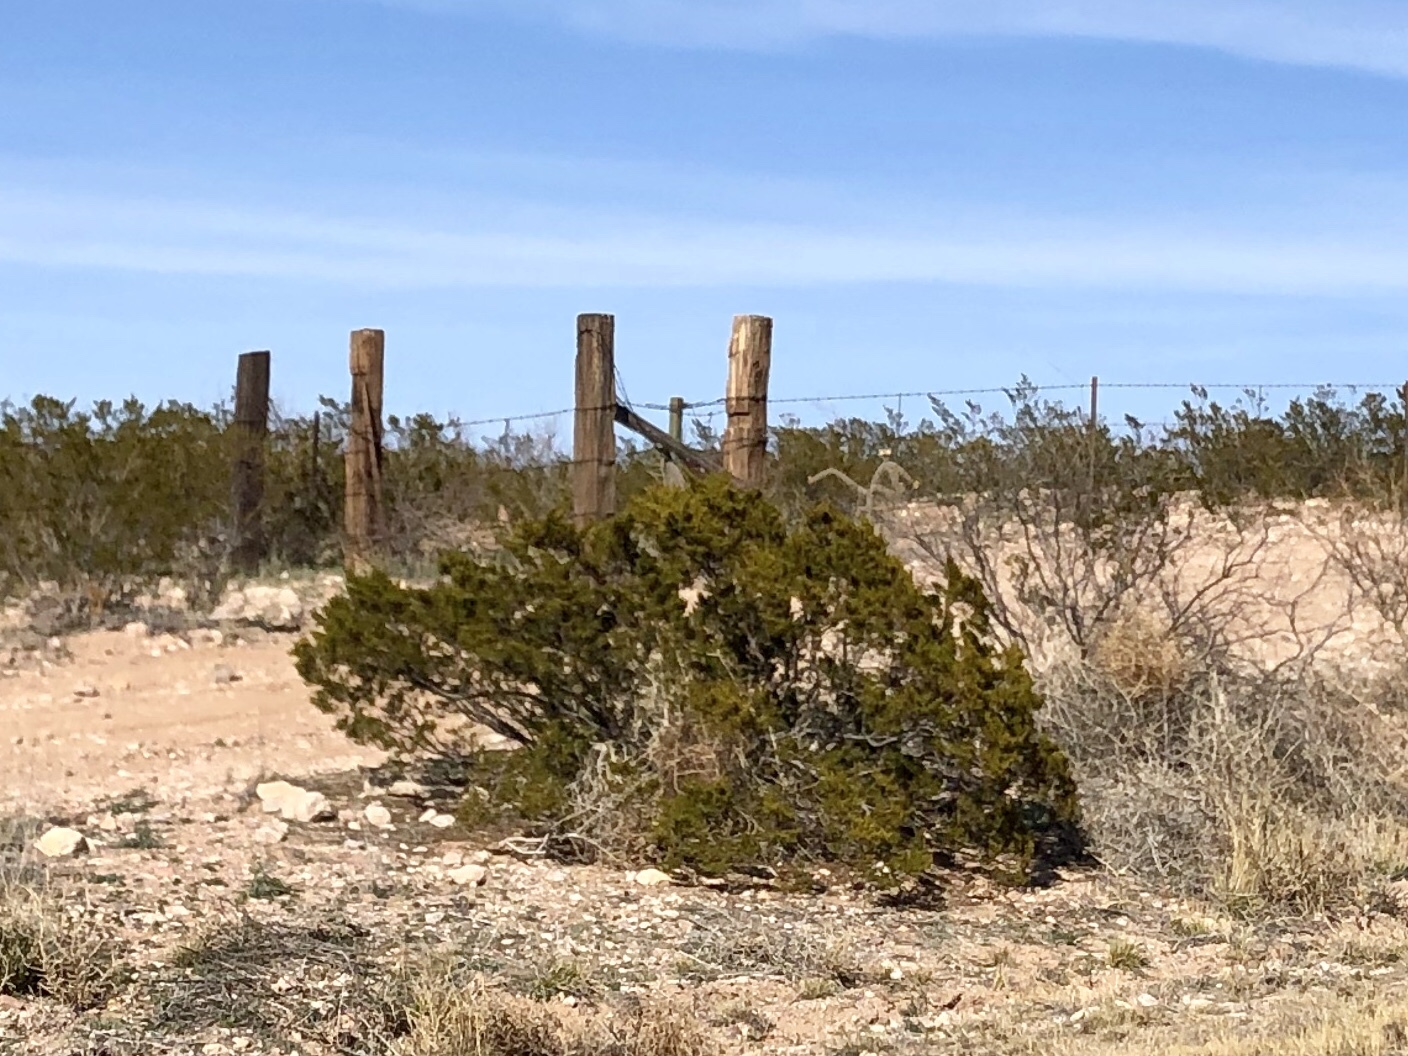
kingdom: Plantae
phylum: Tracheophyta
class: Magnoliopsida
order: Zygophyllales
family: Zygophyllaceae
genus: Larrea
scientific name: Larrea tridentata
